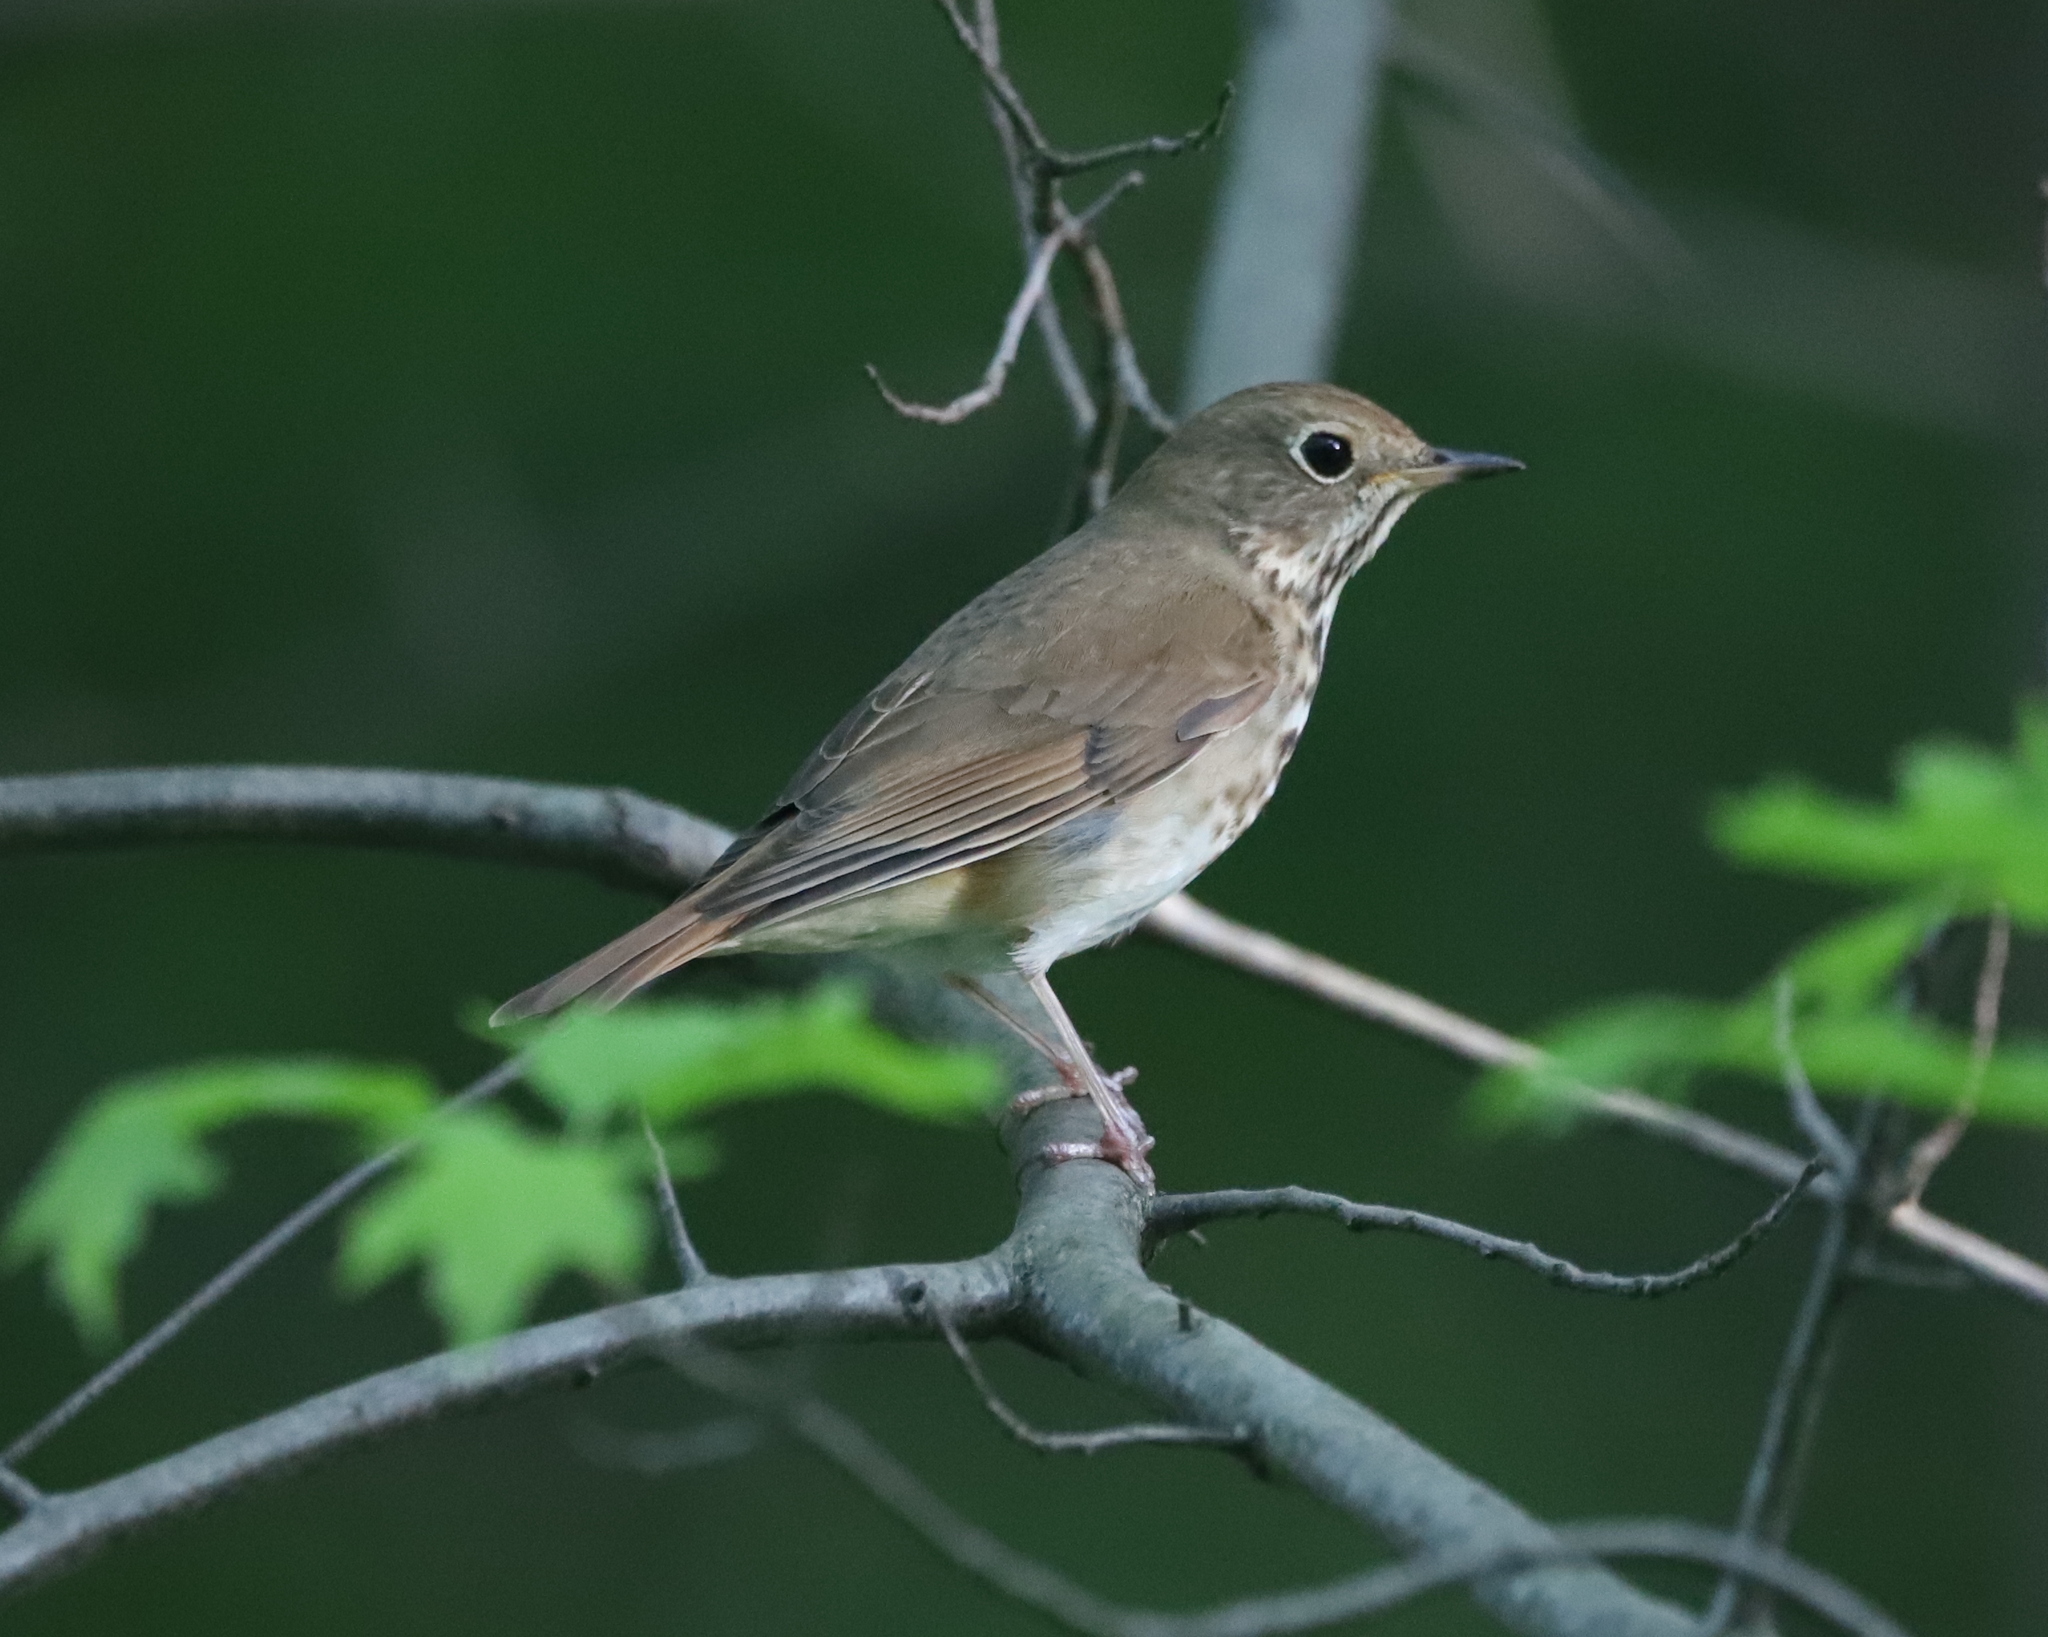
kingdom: Animalia
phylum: Chordata
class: Aves
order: Passeriformes
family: Turdidae
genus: Catharus
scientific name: Catharus guttatus
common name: Hermit thrush
